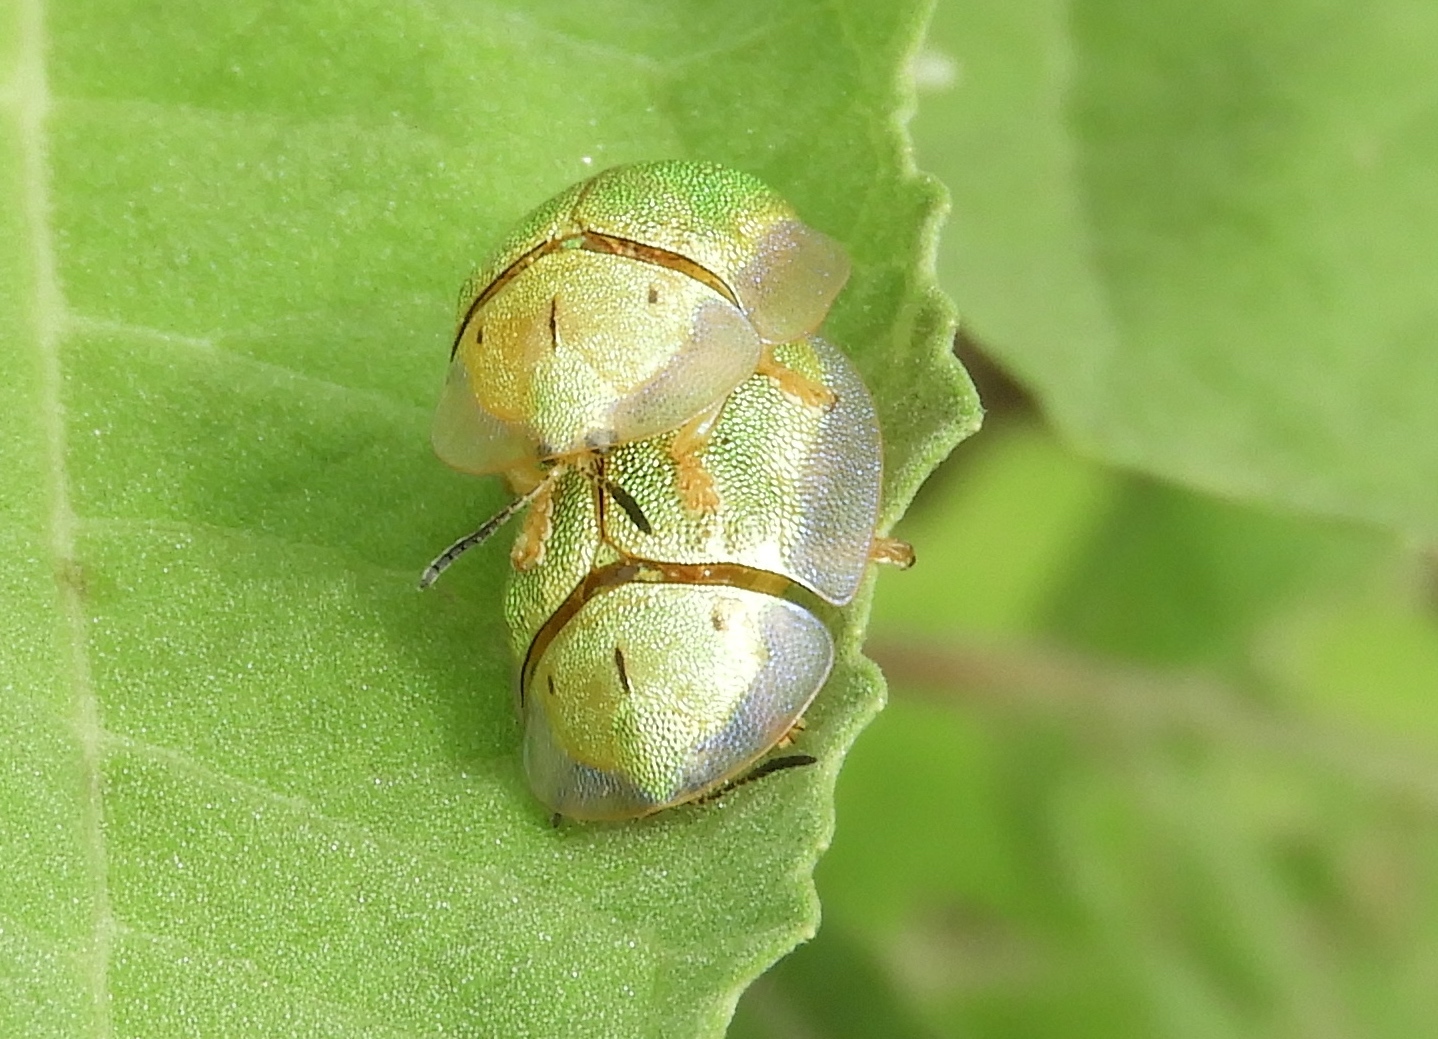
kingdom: Animalia
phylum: Arthropoda
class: Insecta
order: Coleoptera
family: Chrysomelidae
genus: Physonota
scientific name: Physonota
